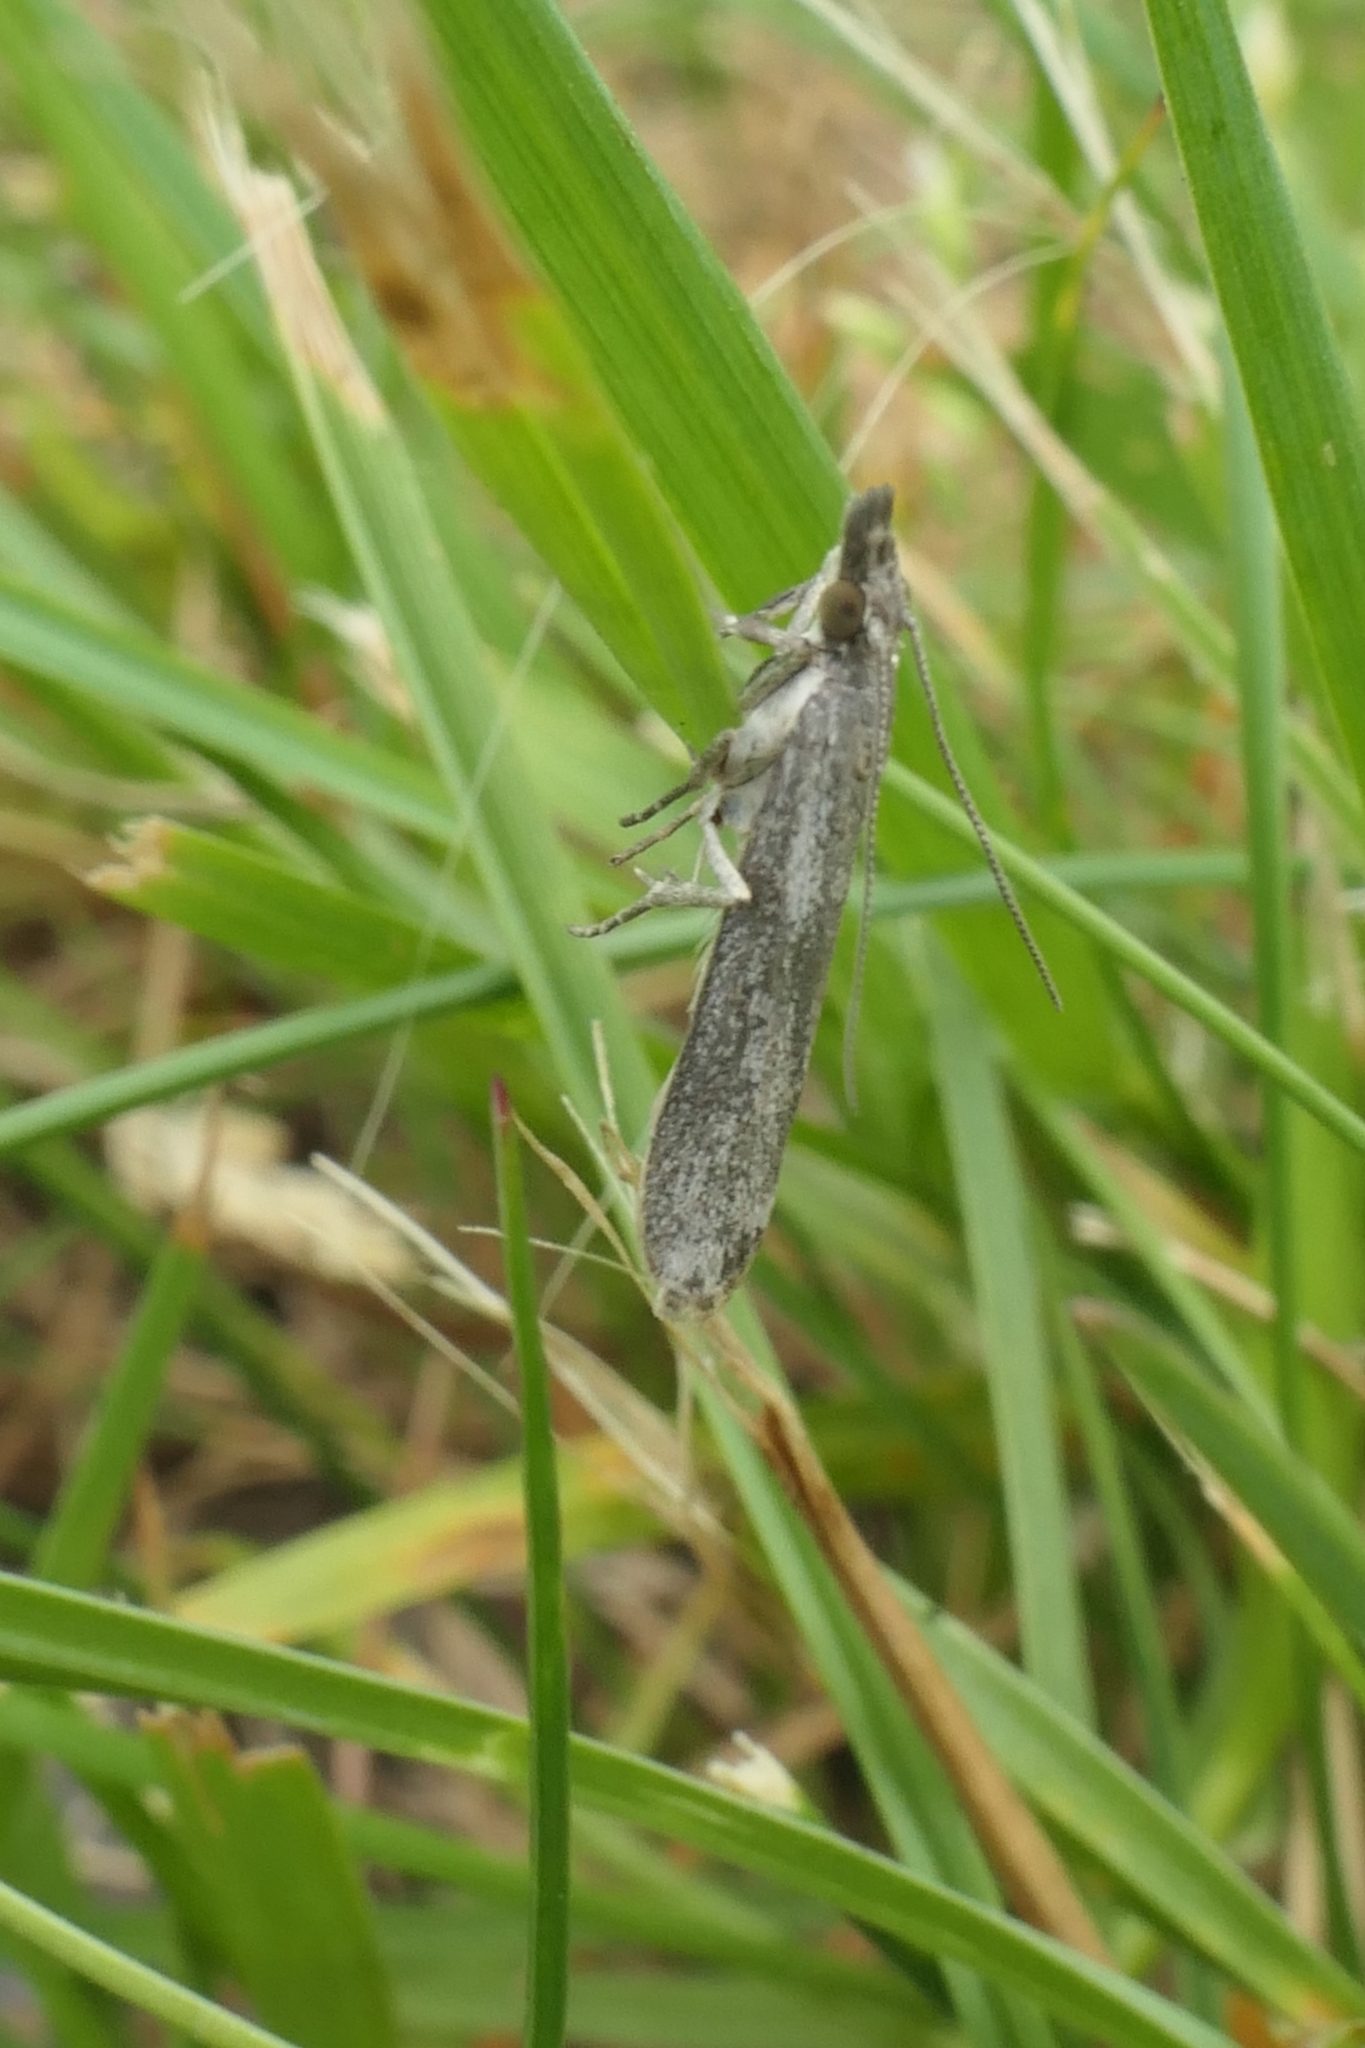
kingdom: Animalia
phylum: Arthropoda
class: Insecta
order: Lepidoptera
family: Crambidae
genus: Eudonia
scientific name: Eudonia leptalea
